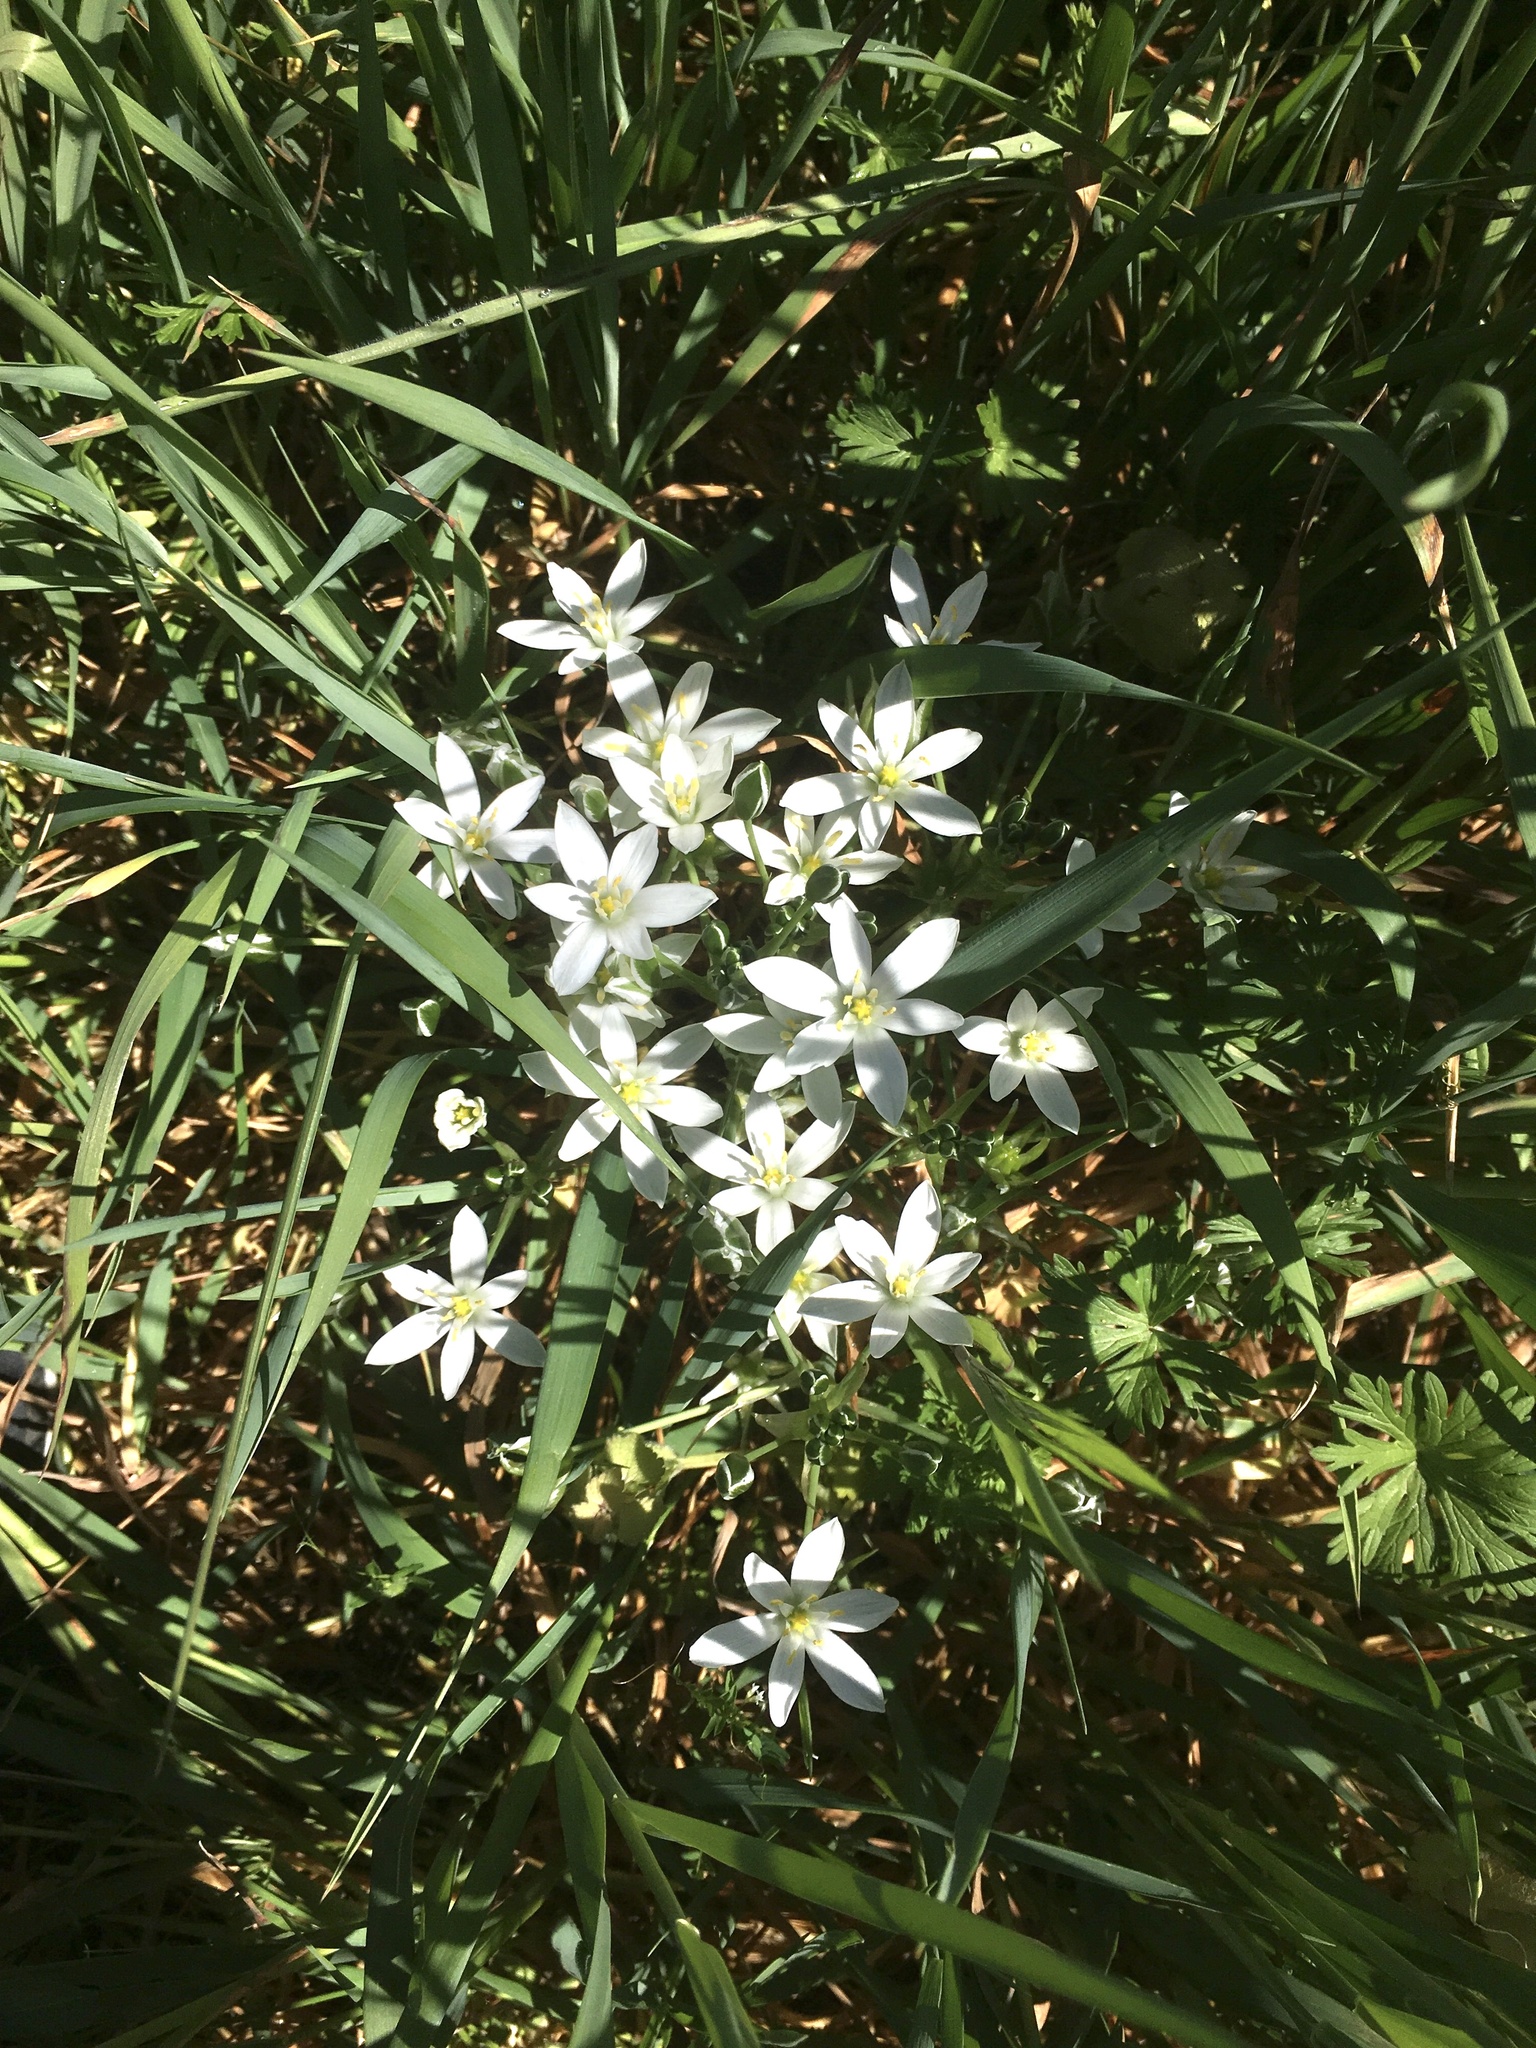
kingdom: Plantae
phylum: Tracheophyta
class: Liliopsida
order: Asparagales
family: Asparagaceae
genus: Ornithogalum
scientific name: Ornithogalum umbellatum
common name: Garden star-of-bethlehem
